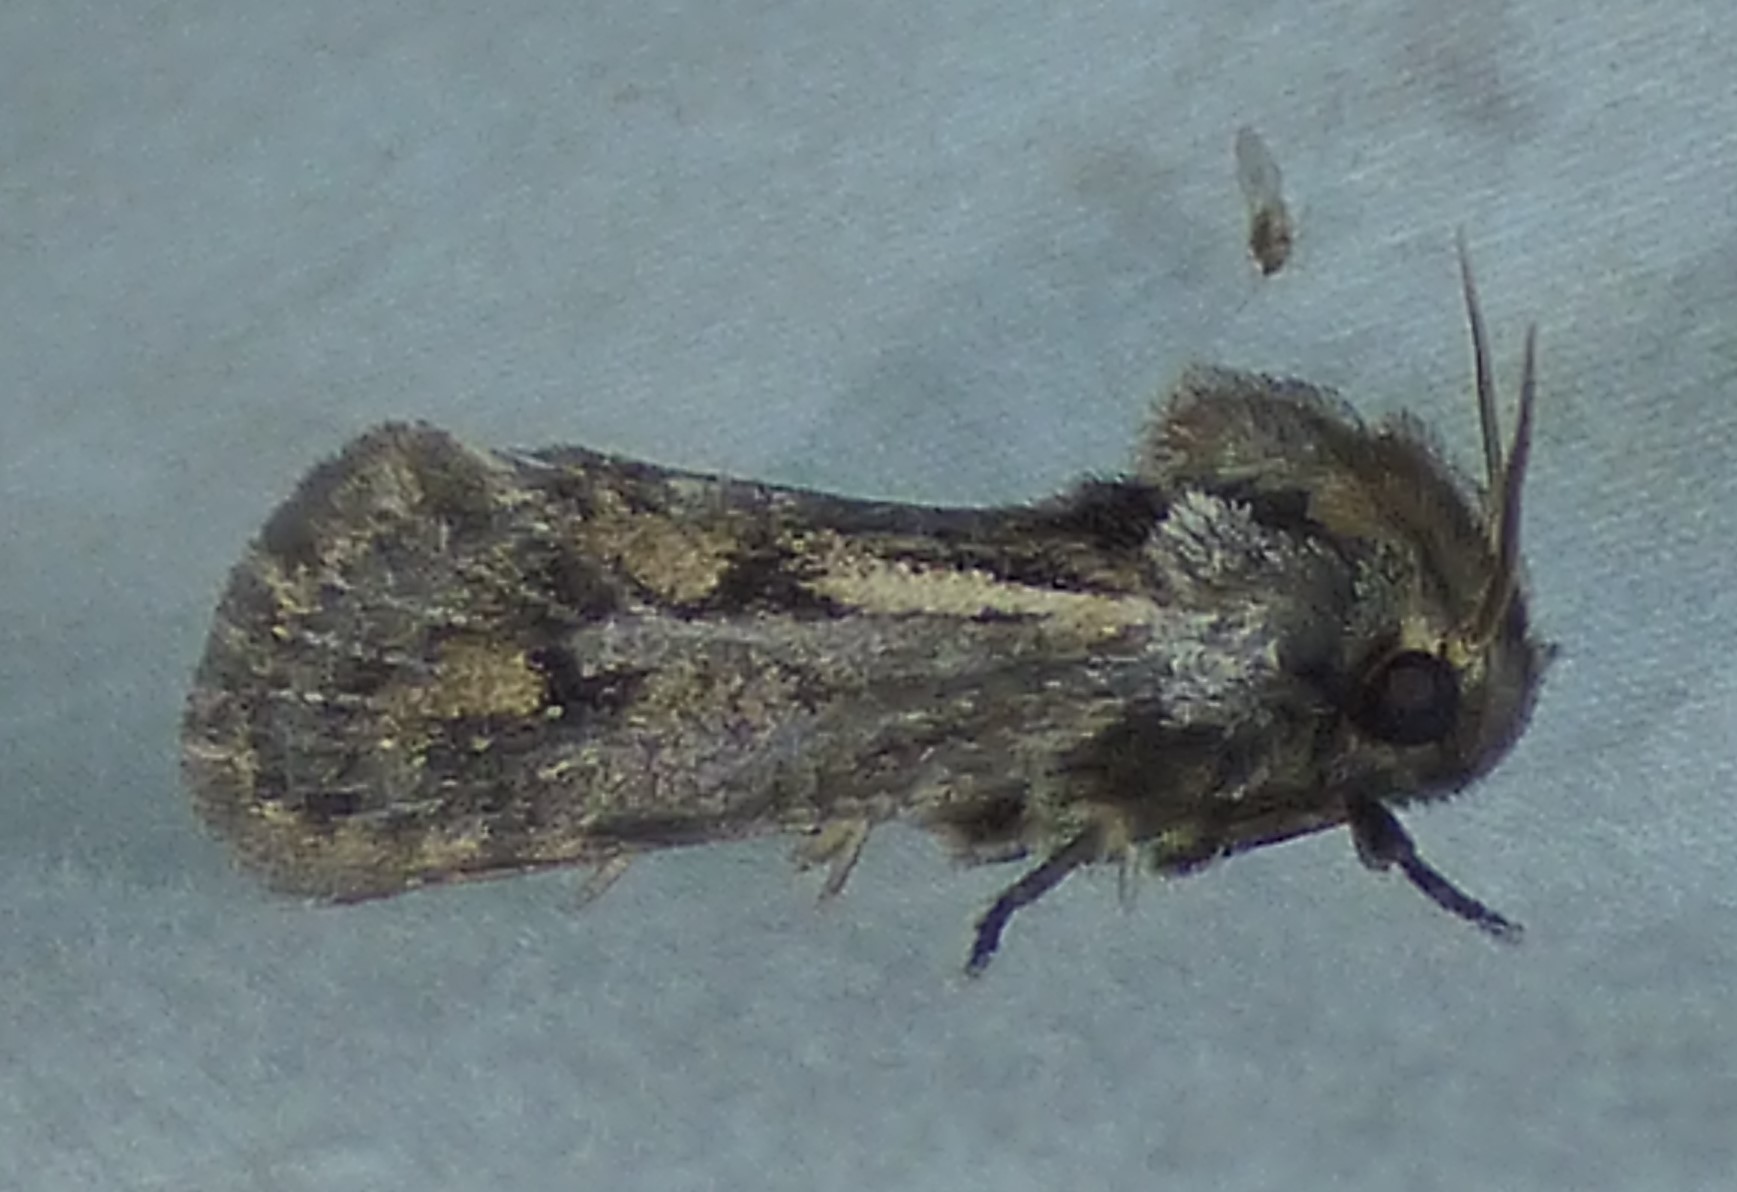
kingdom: Animalia
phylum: Arthropoda
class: Insecta
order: Lepidoptera
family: Tineidae
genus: Acrolophus
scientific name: Acrolophus popeanella
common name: Clemens' grass tubeworm moth
